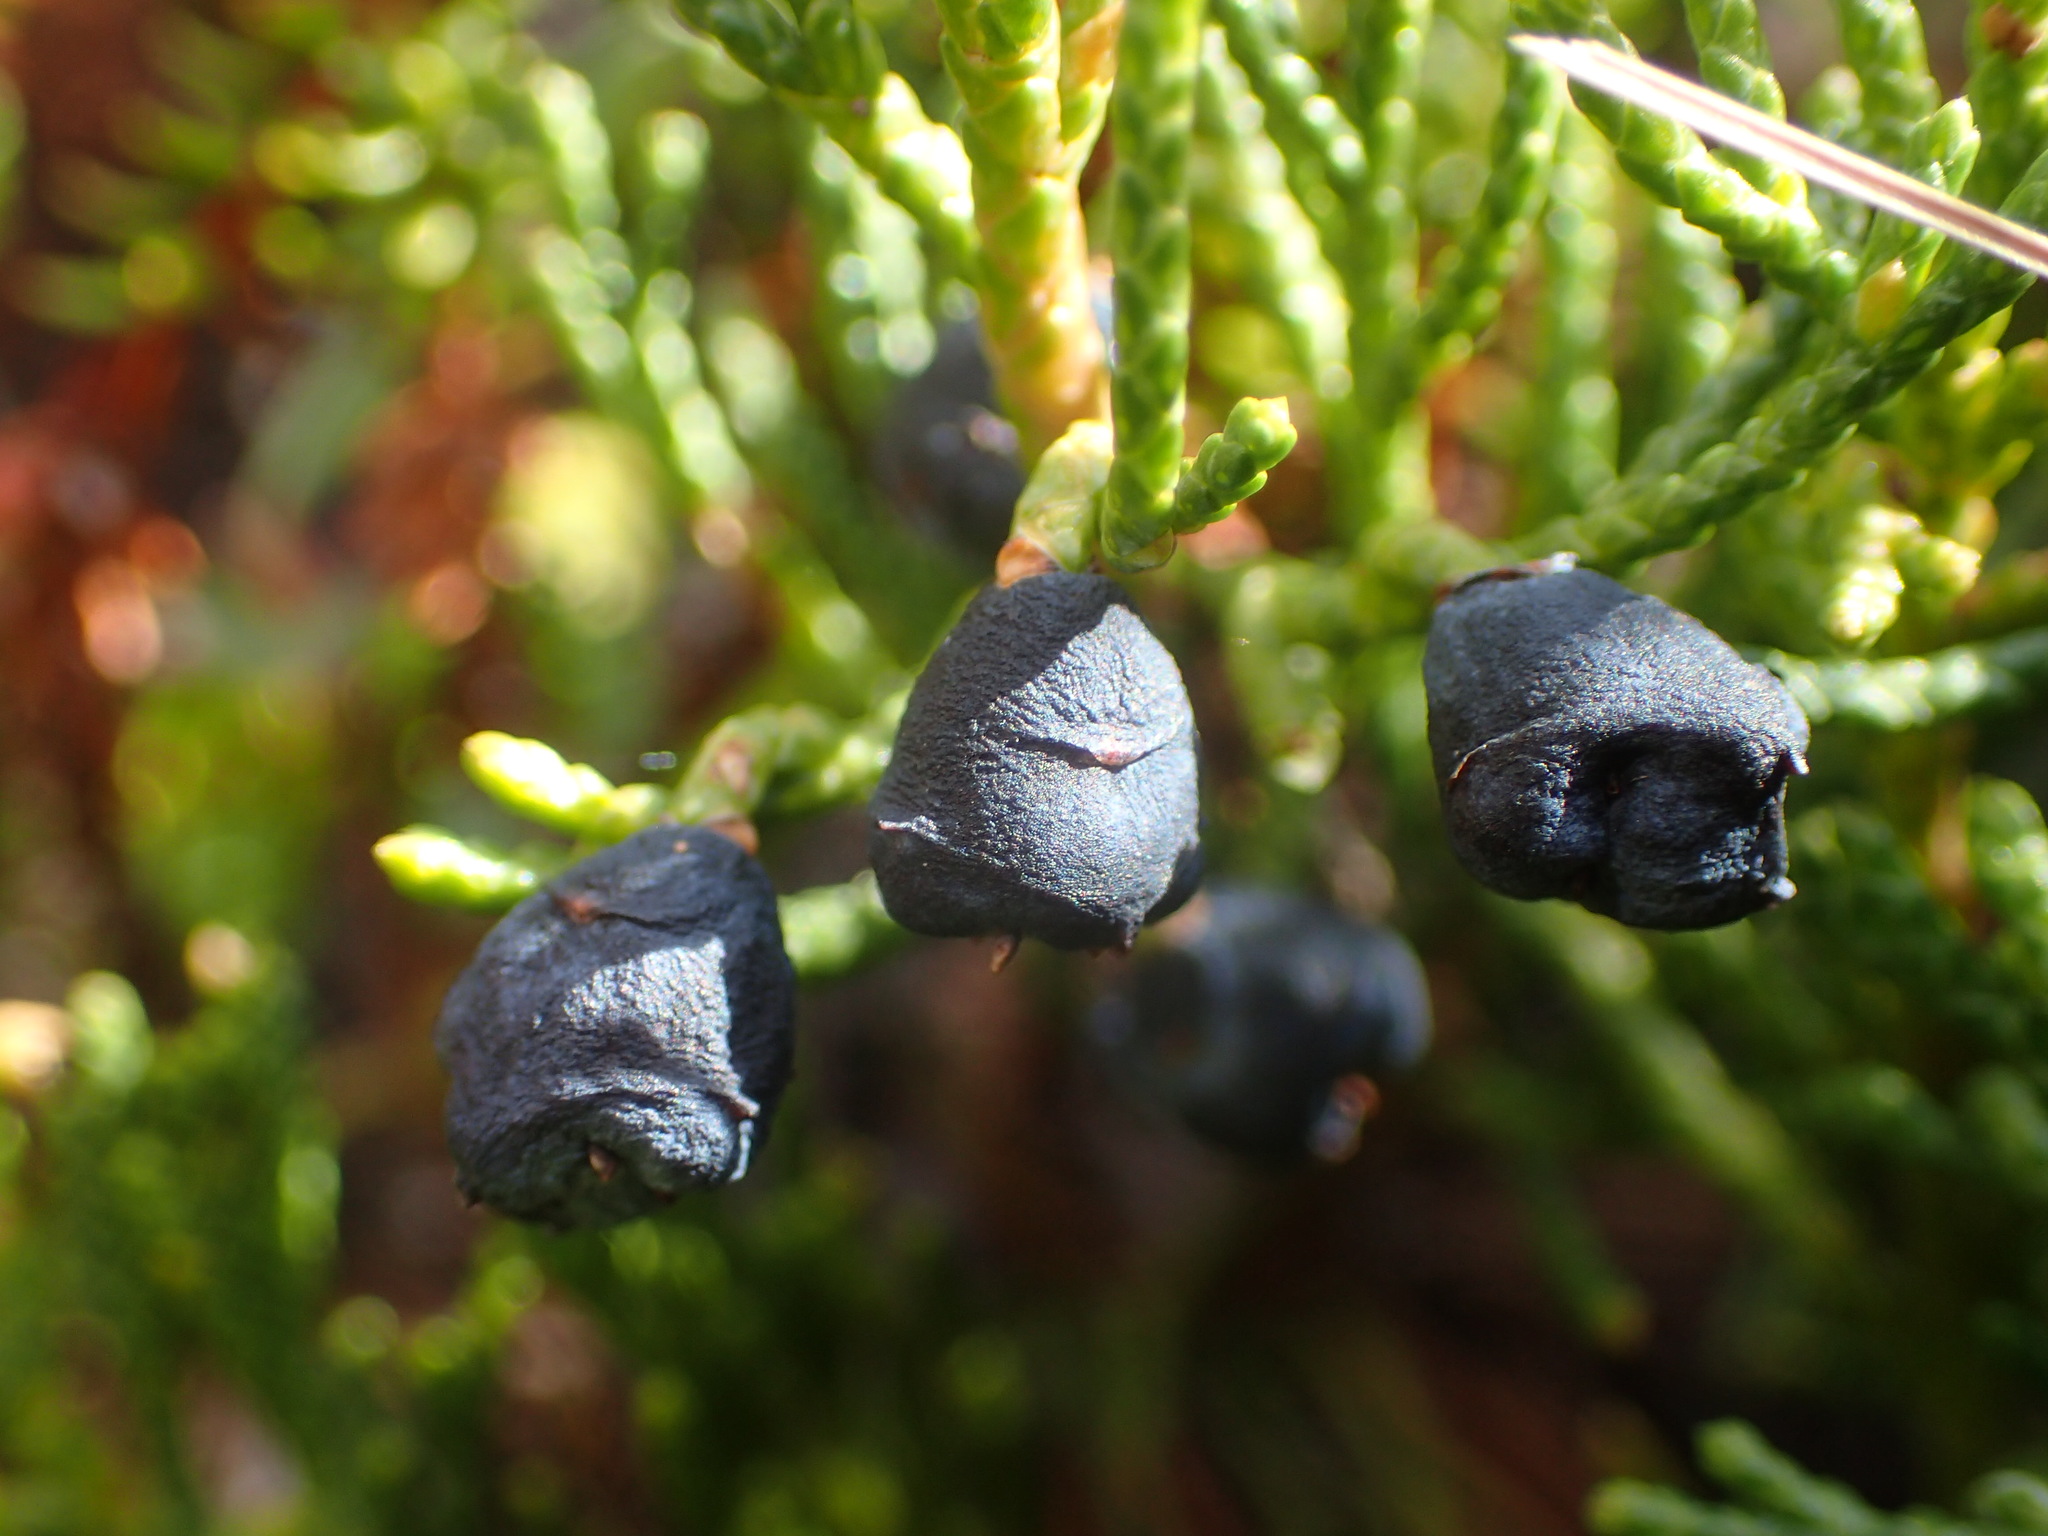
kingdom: Plantae
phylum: Tracheophyta
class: Pinopsida
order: Pinales
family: Cupressaceae
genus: Juniperus
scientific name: Juniperus horizontalis
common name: Creeping juniper
